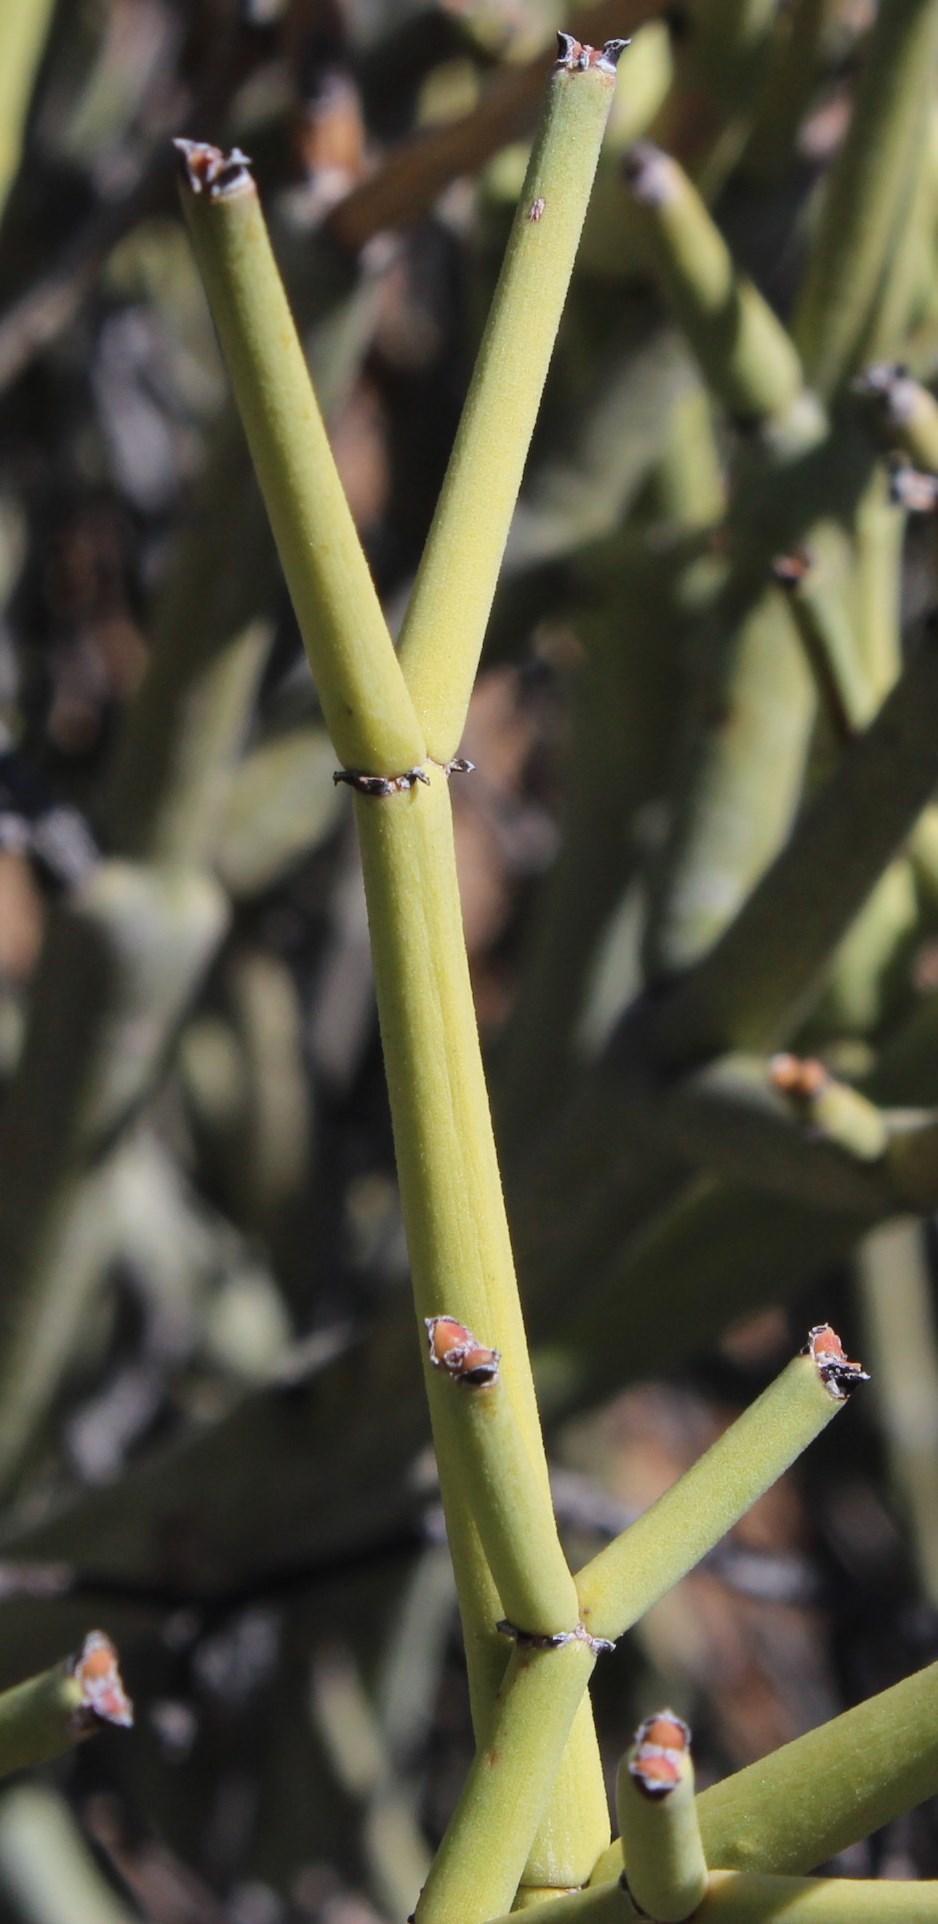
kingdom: Plantae
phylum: Tracheophyta
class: Magnoliopsida
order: Malpighiales
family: Euphorbiaceae
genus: Euphorbia
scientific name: Euphorbia rhombifolia
